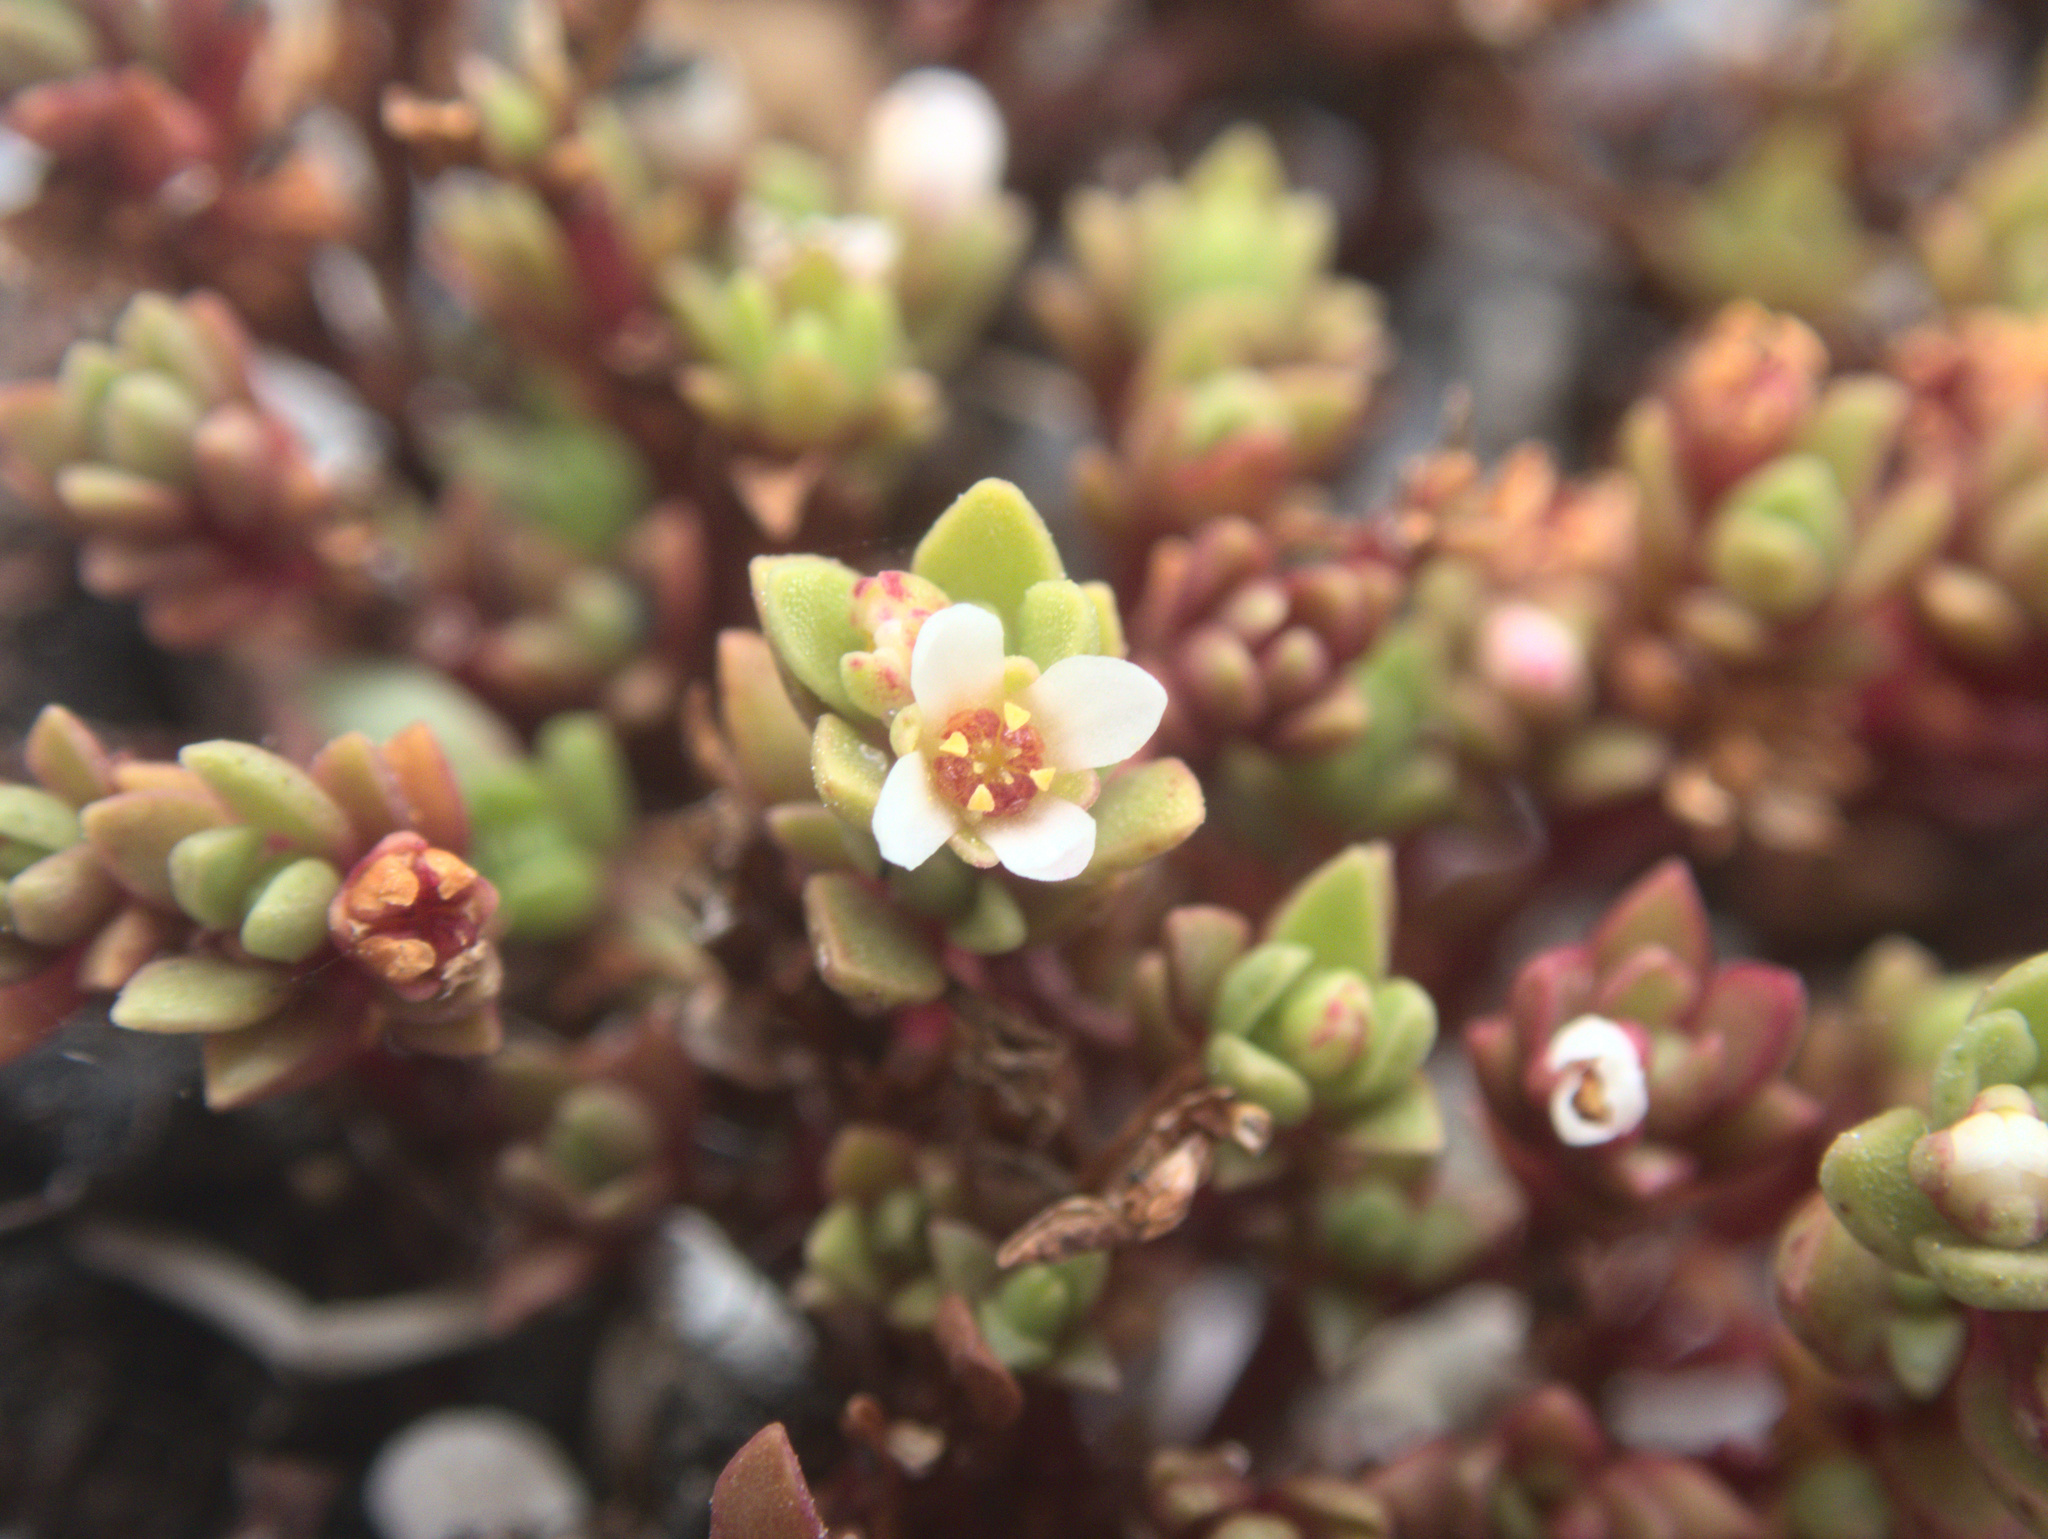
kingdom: Plantae
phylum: Tracheophyta
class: Magnoliopsida
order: Saxifragales
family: Crassulaceae
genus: Crassula
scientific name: Crassula moschata
